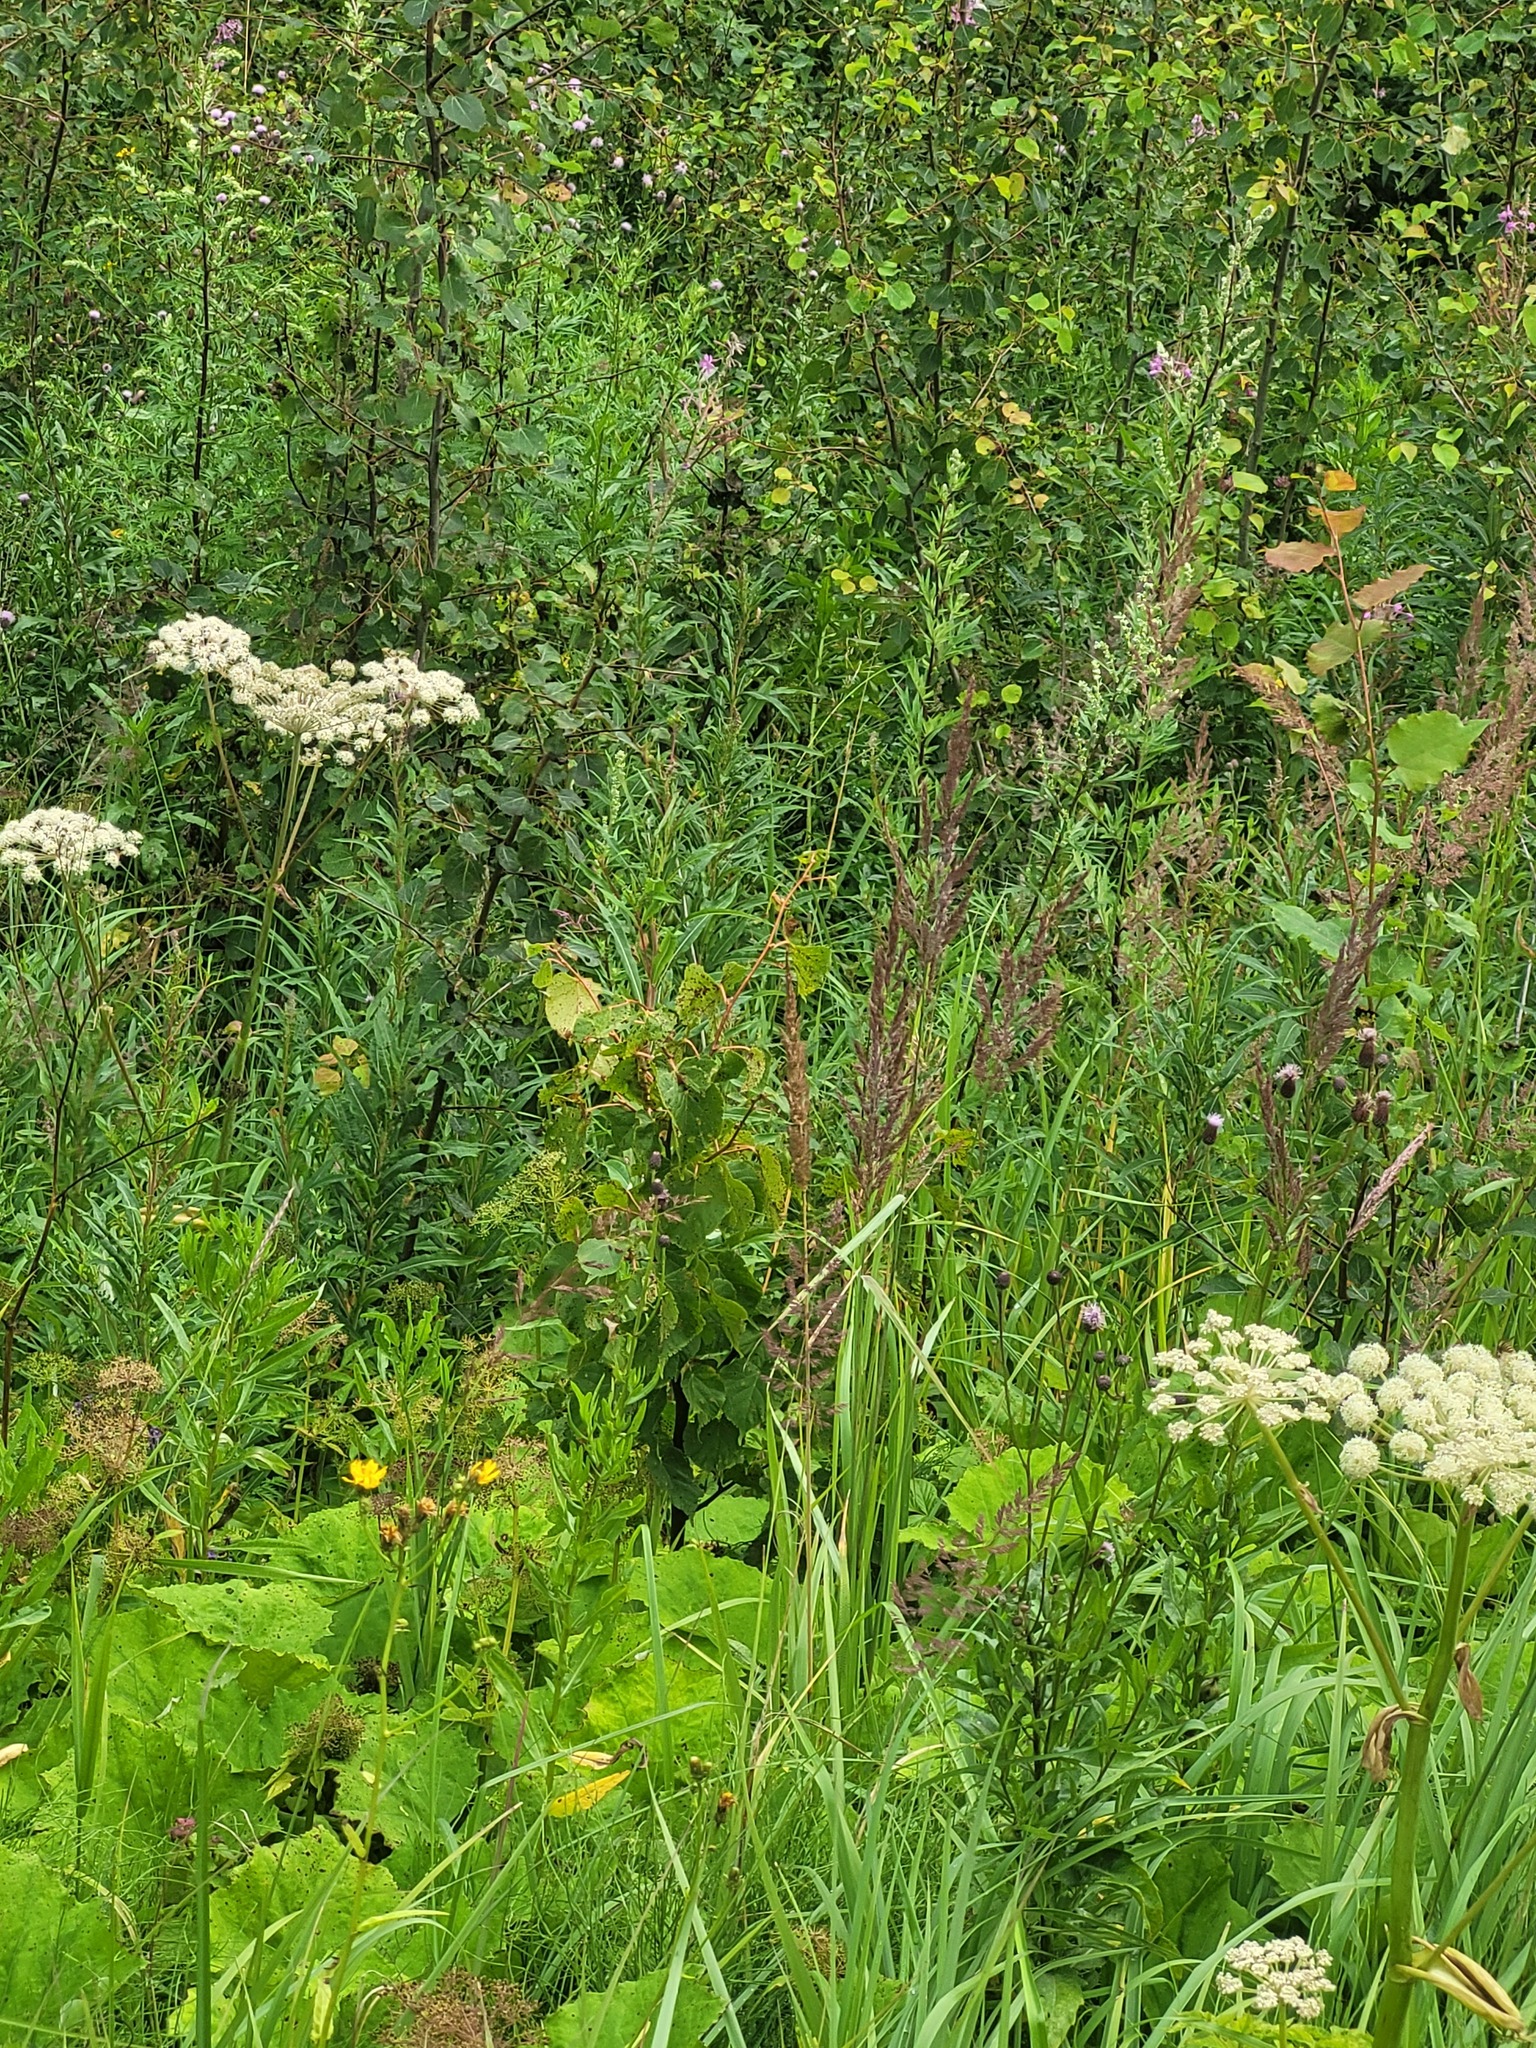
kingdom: Plantae
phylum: Tracheophyta
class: Magnoliopsida
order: Malvales
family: Malvaceae
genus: Tilia
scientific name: Tilia cordata
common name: Small-leaved lime
